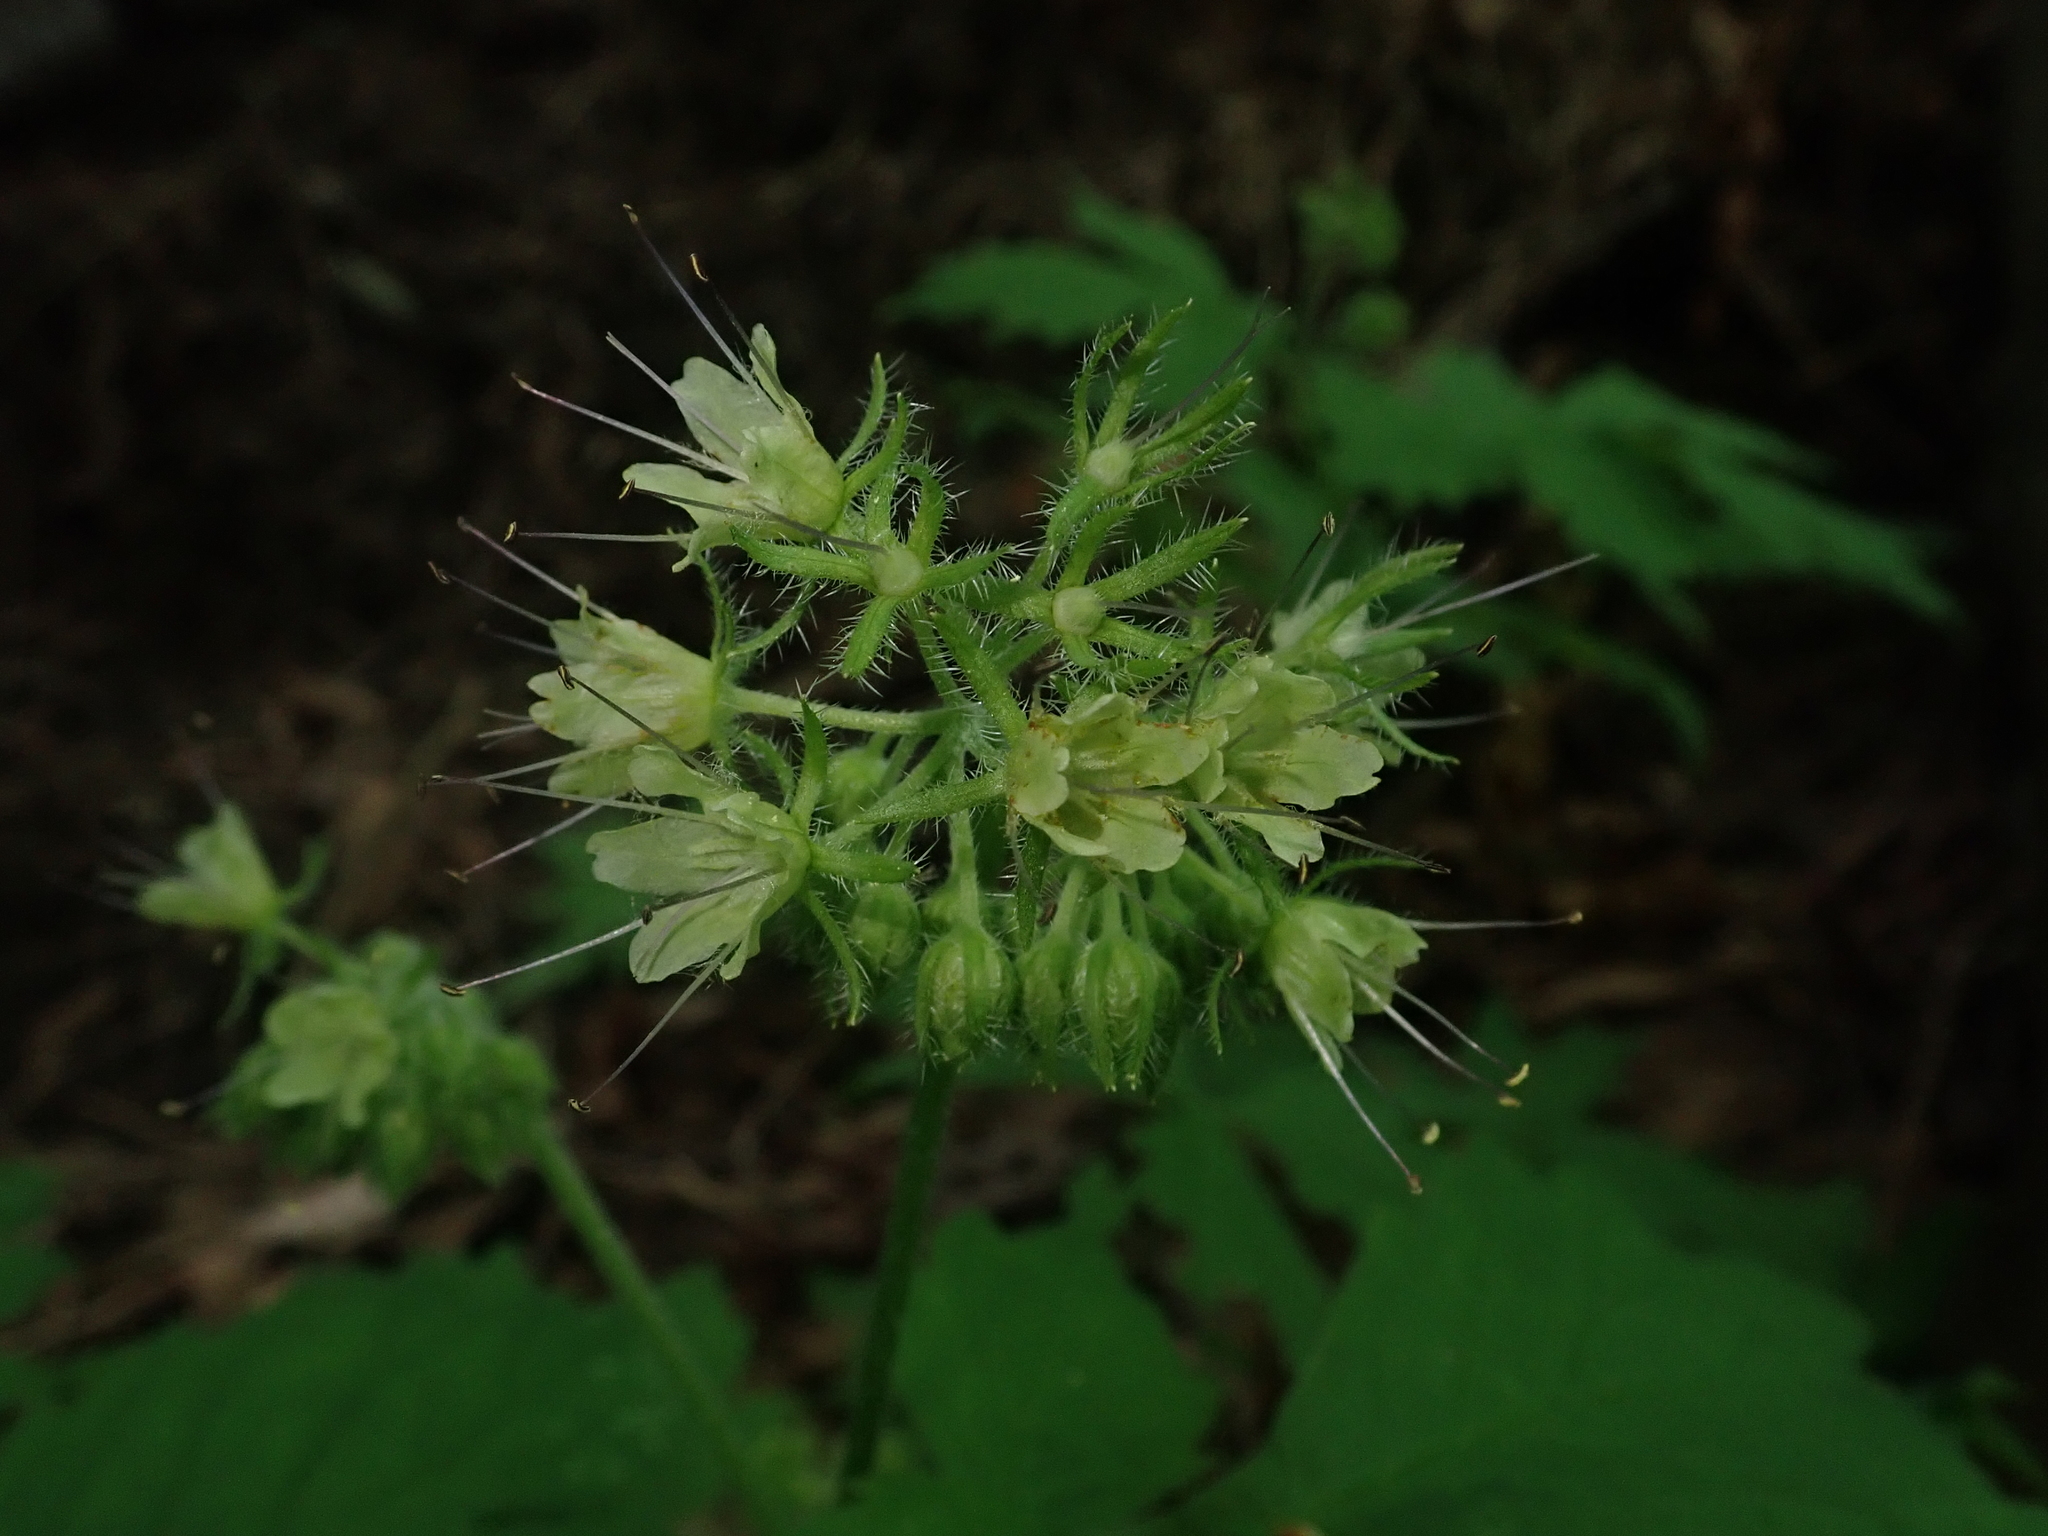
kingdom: Plantae
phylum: Tracheophyta
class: Magnoliopsida
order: Boraginales
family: Hydrophyllaceae
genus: Hydrophyllum
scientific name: Hydrophyllum tenuipes
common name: Pacific waterleaf
